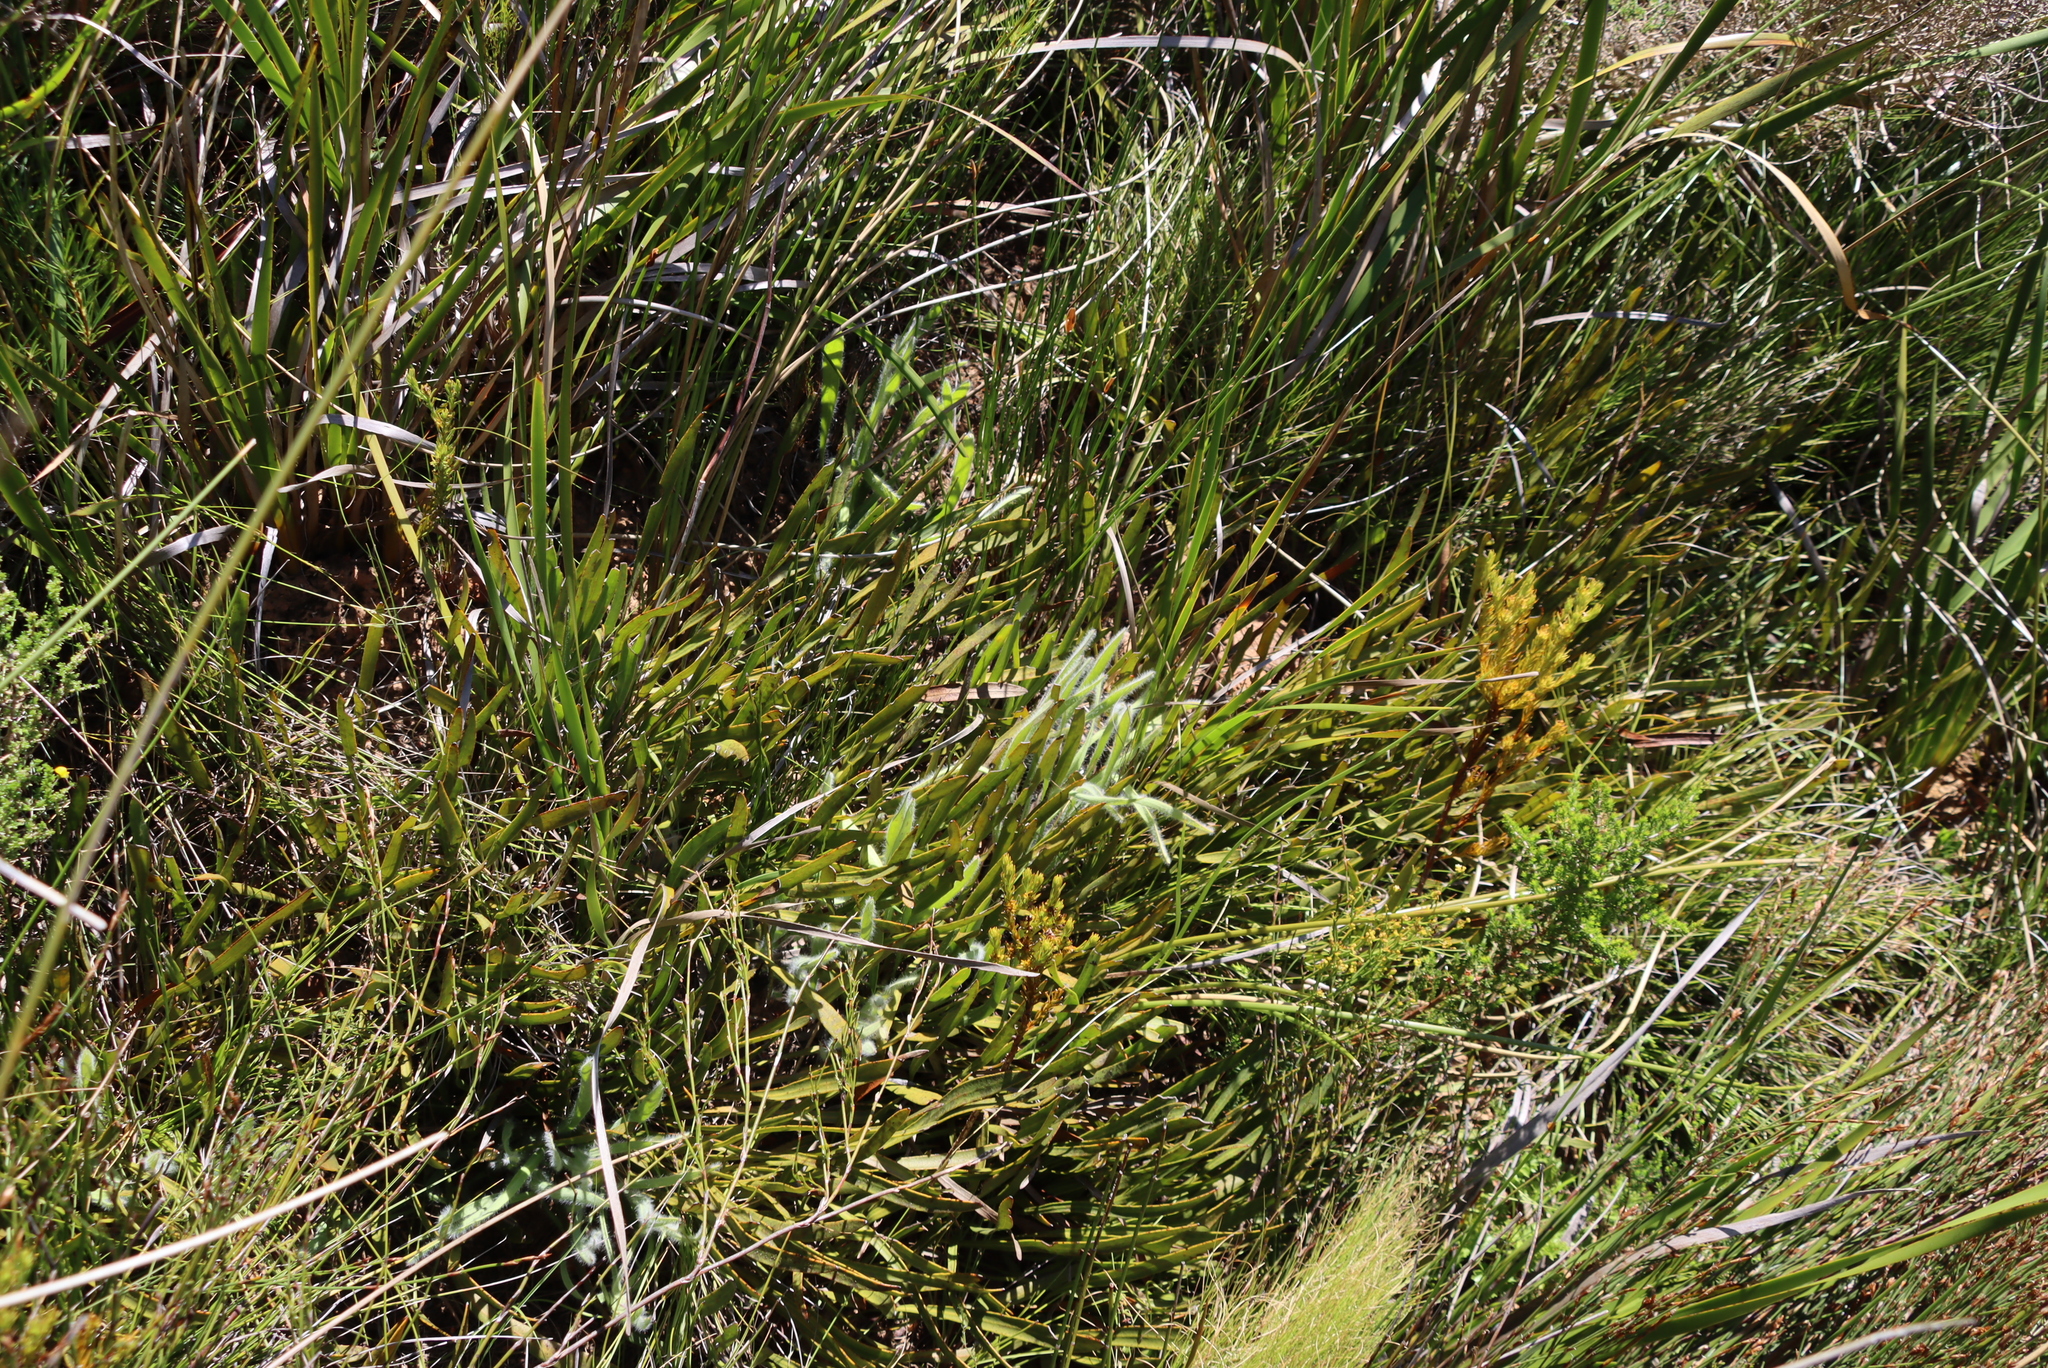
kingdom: Plantae
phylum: Tracheophyta
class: Magnoliopsida
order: Proteales
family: Proteaceae
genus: Protea
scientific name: Protea scabra
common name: Sandpaper-leaf sugarbush
